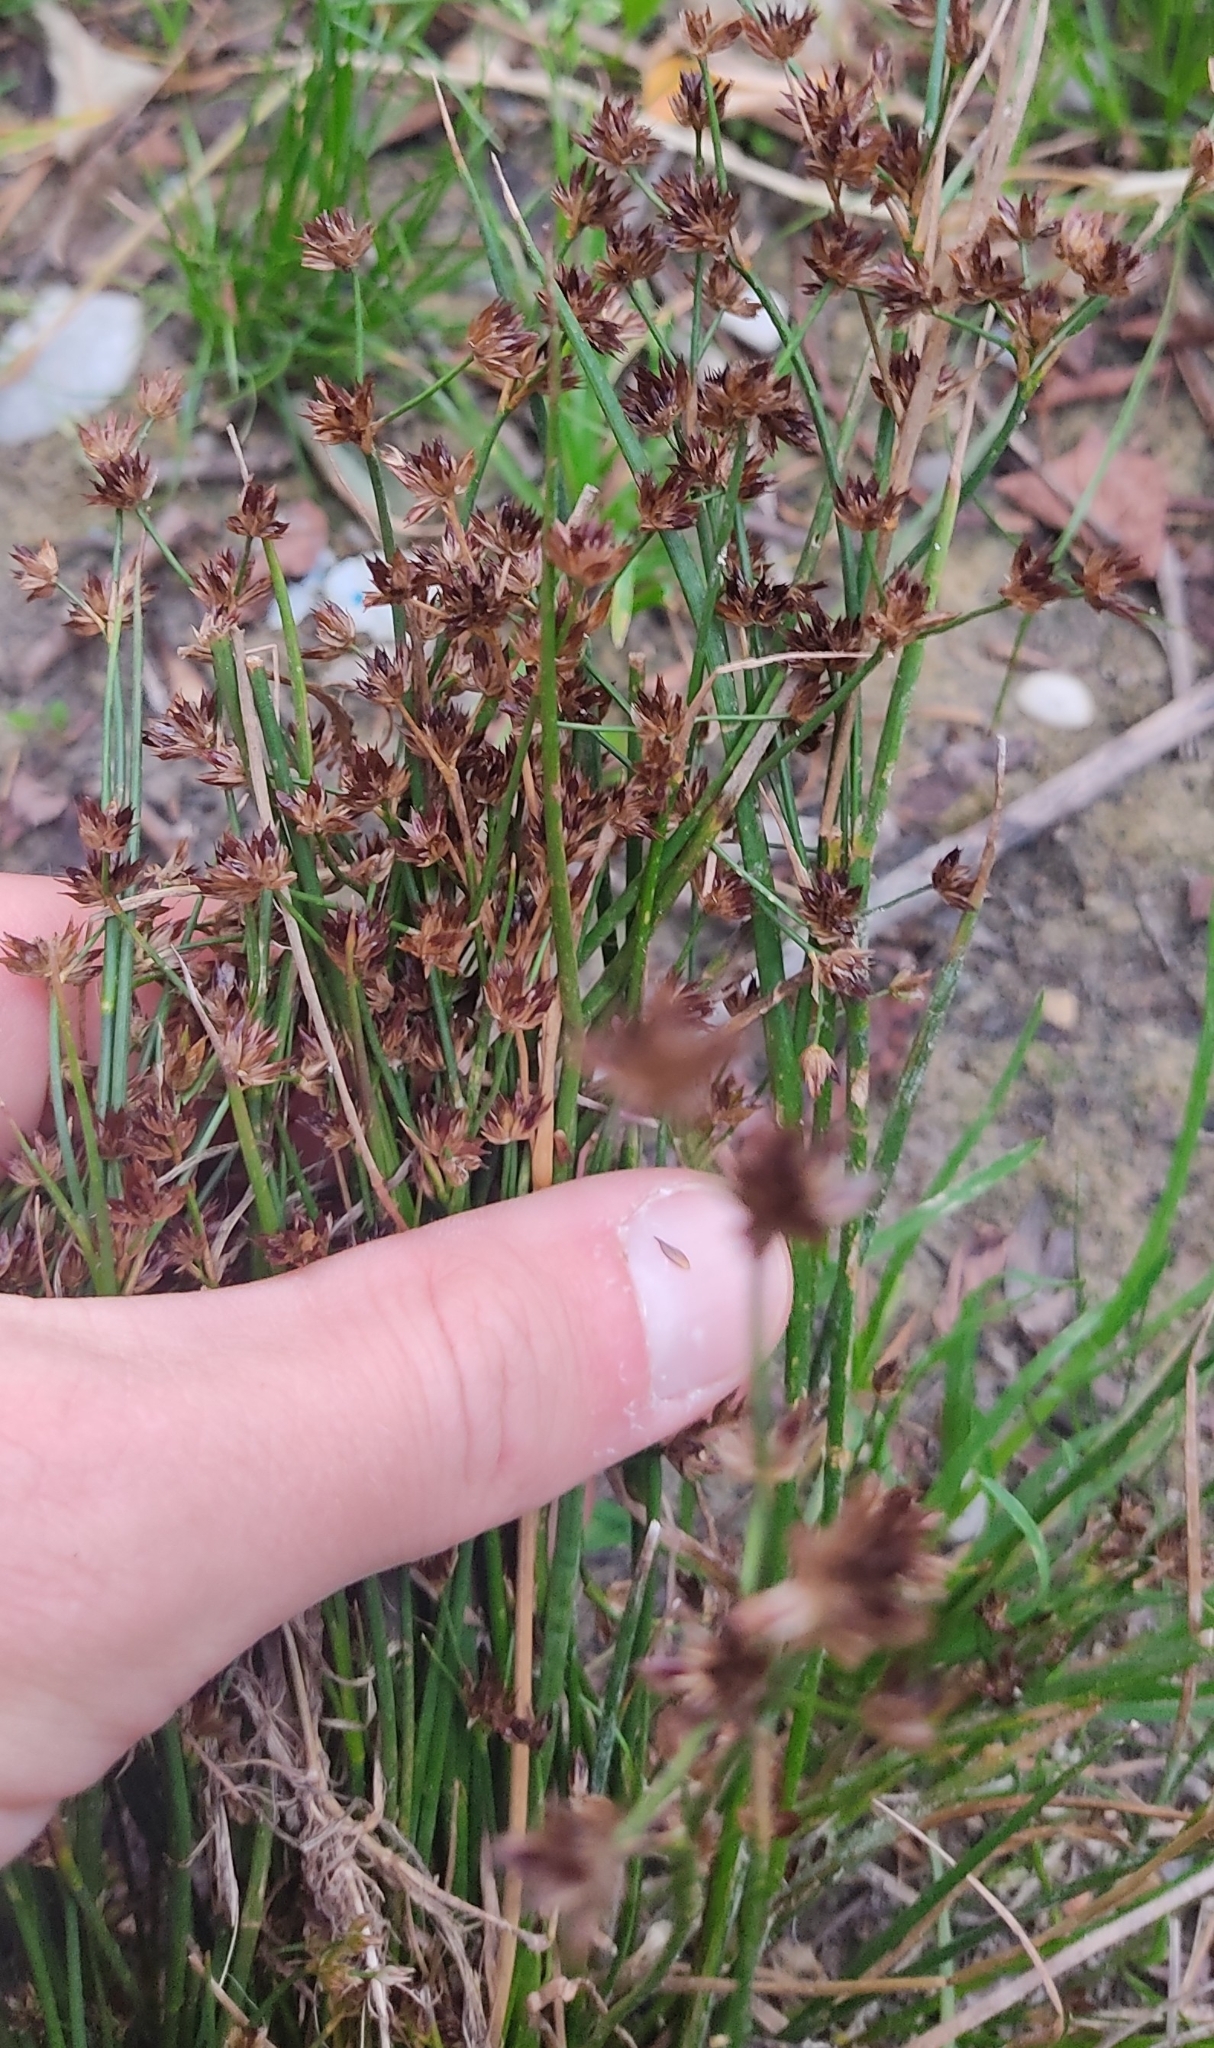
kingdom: Plantae
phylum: Tracheophyta
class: Liliopsida
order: Poales
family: Juncaceae
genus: Juncus
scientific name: Juncus articulatus
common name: Jointed rush
